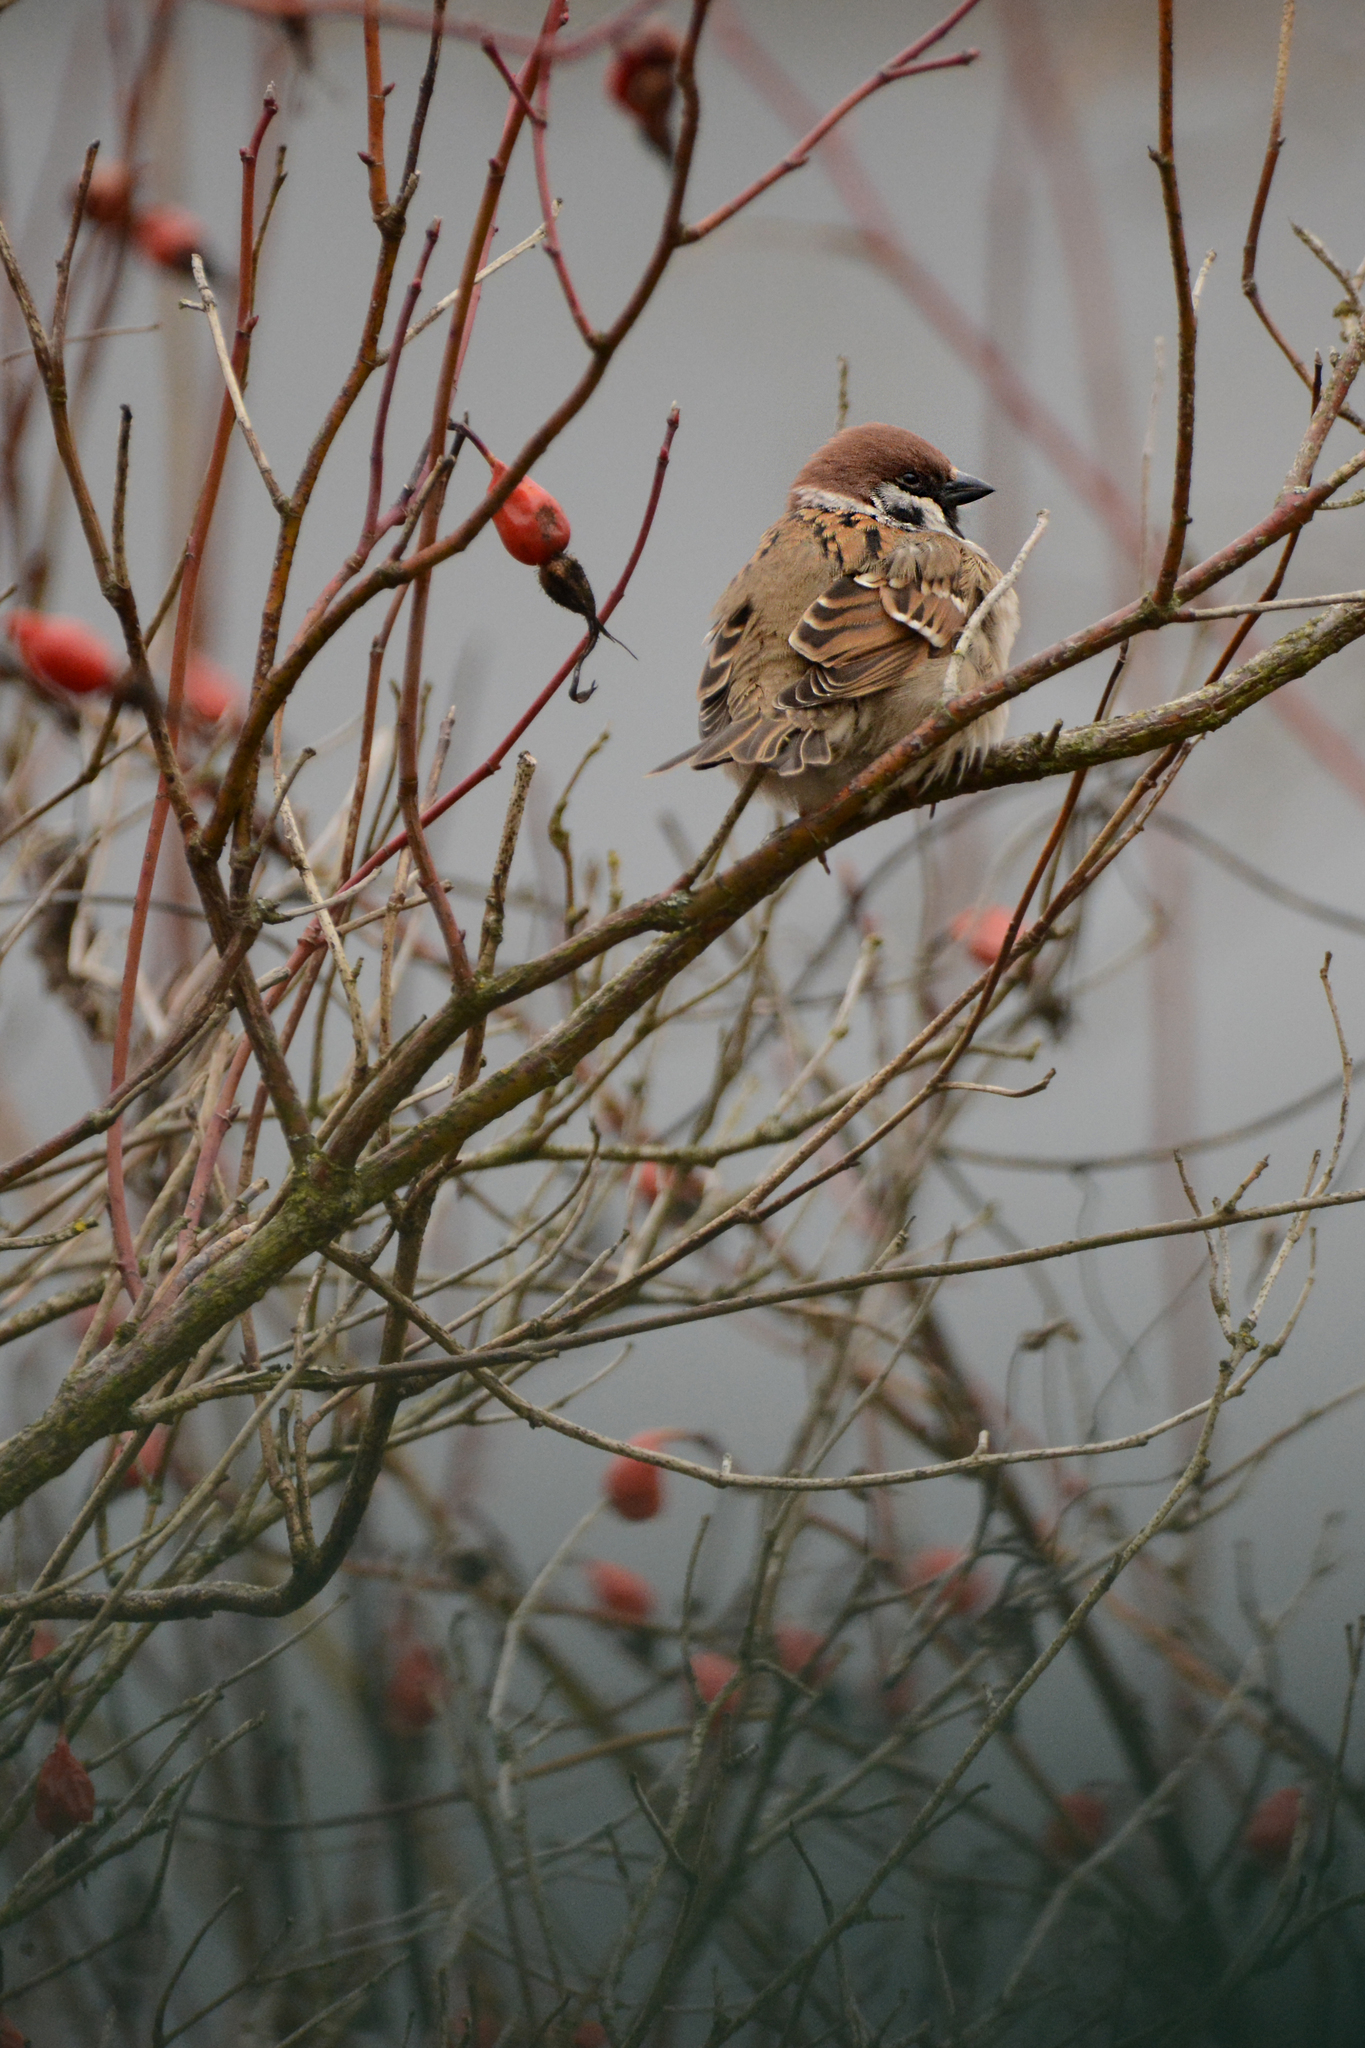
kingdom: Animalia
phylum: Chordata
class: Aves
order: Passeriformes
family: Passeridae
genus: Passer
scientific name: Passer montanus
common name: Eurasian tree sparrow
